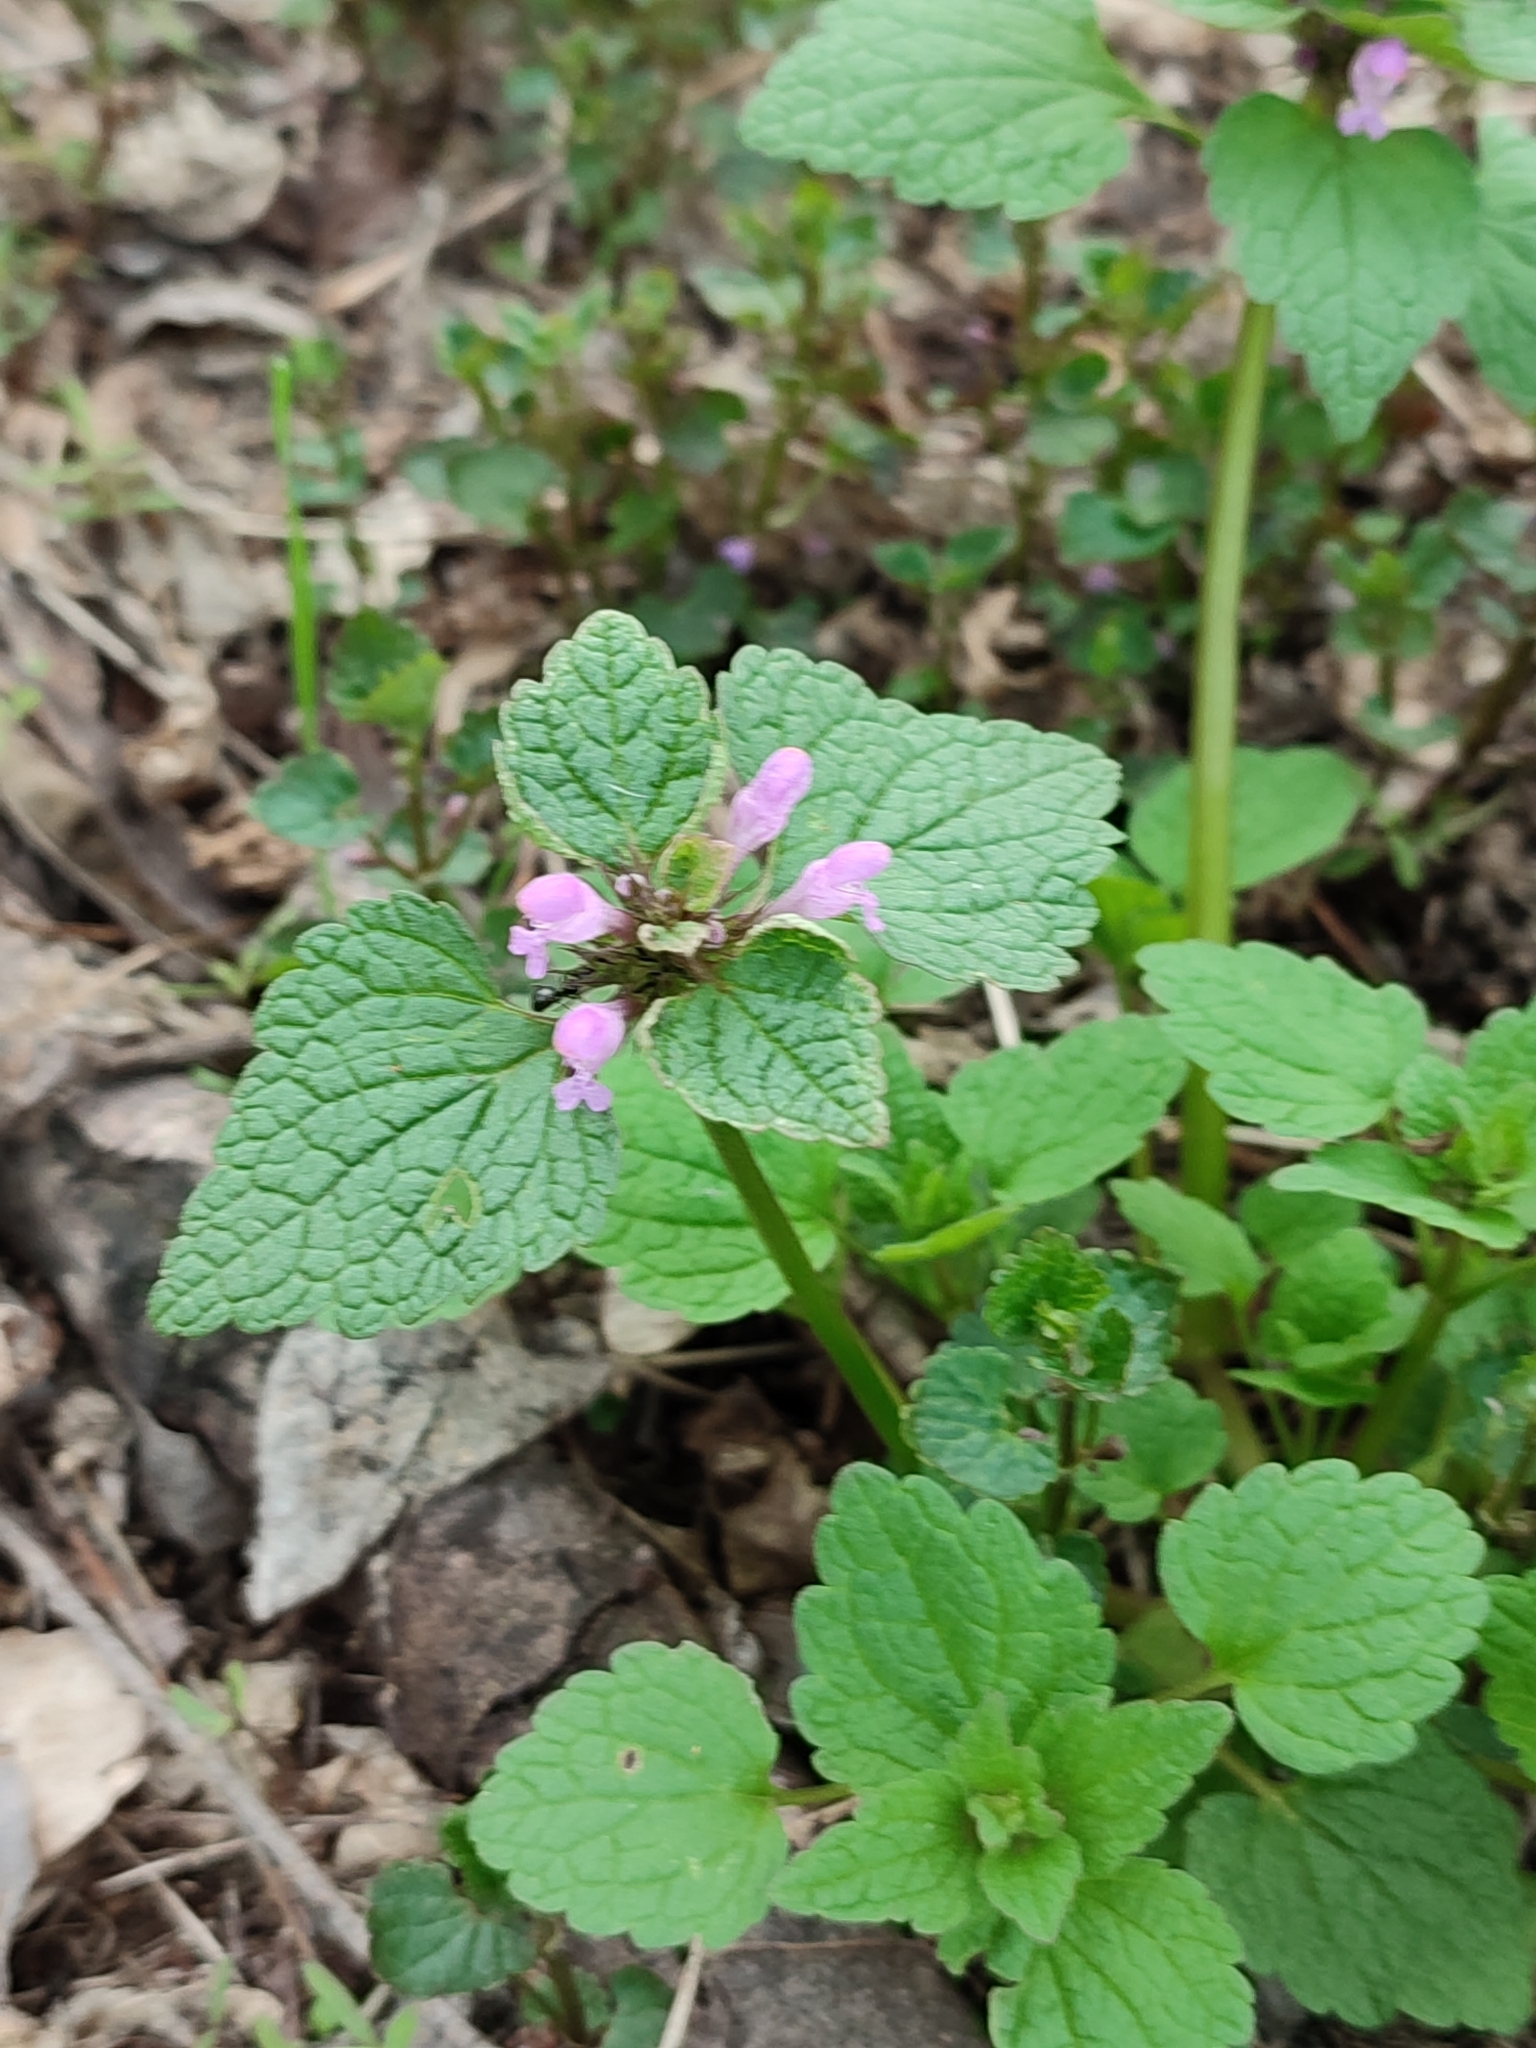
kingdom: Plantae
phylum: Tracheophyta
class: Magnoliopsida
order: Lamiales
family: Lamiaceae
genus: Lamium
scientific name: Lamium purpureum
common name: Red dead-nettle
